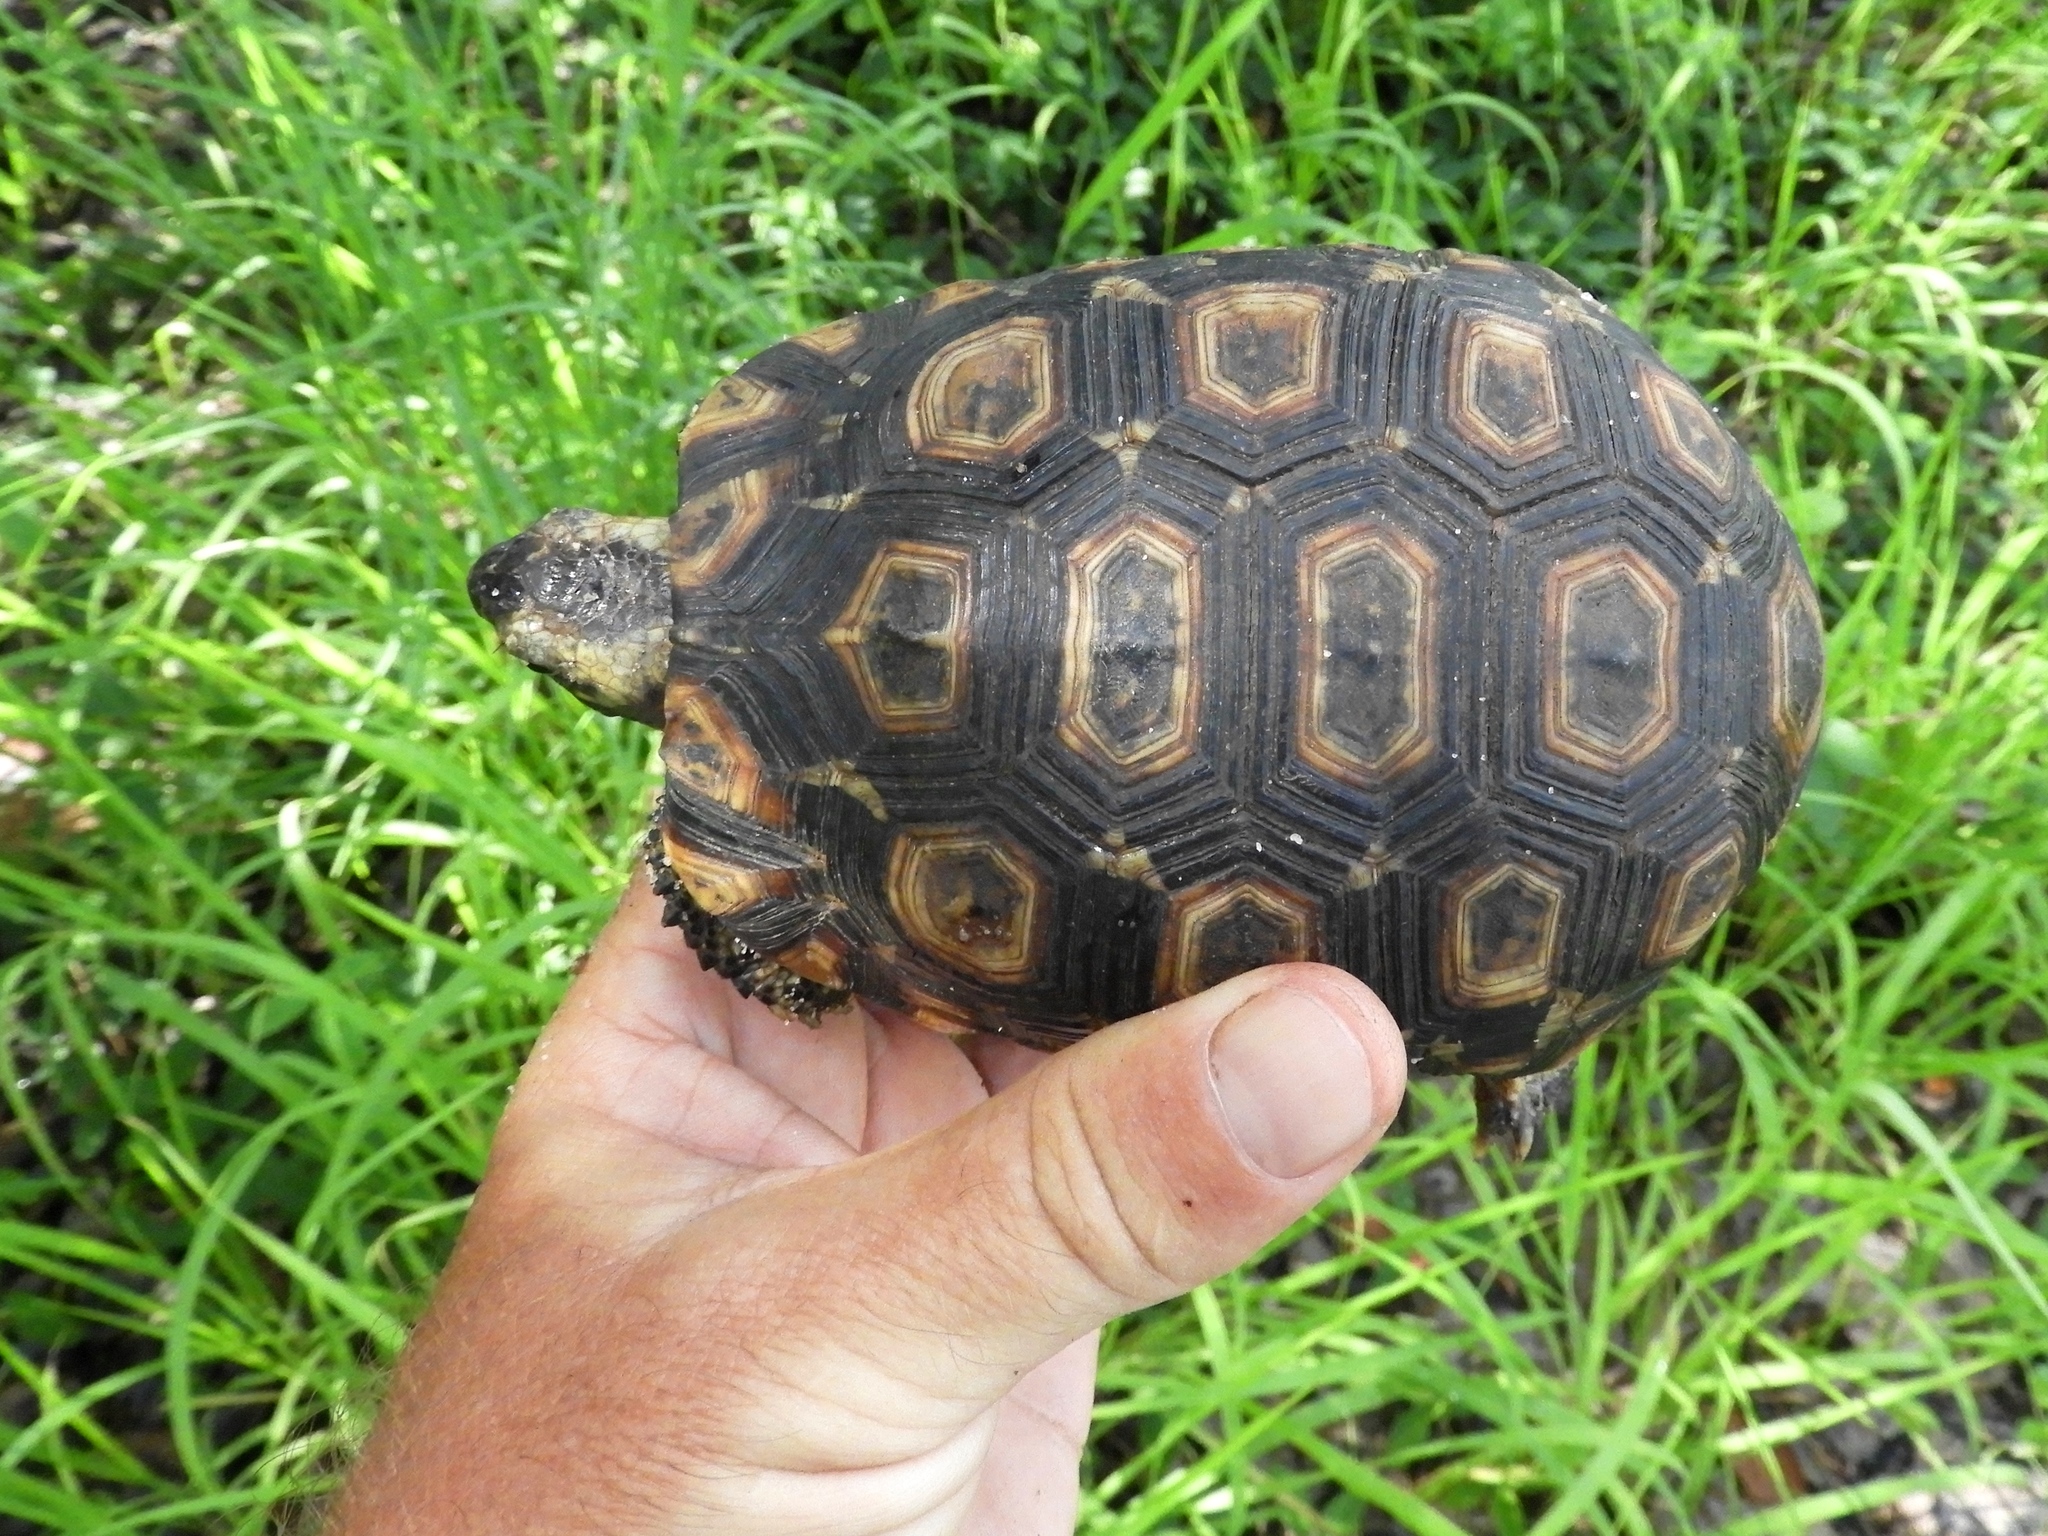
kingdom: Animalia
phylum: Chordata
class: Testudines
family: Testudinidae
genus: Kinixys
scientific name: Kinixys zombensis
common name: Southeastern hinge-back tortoise
